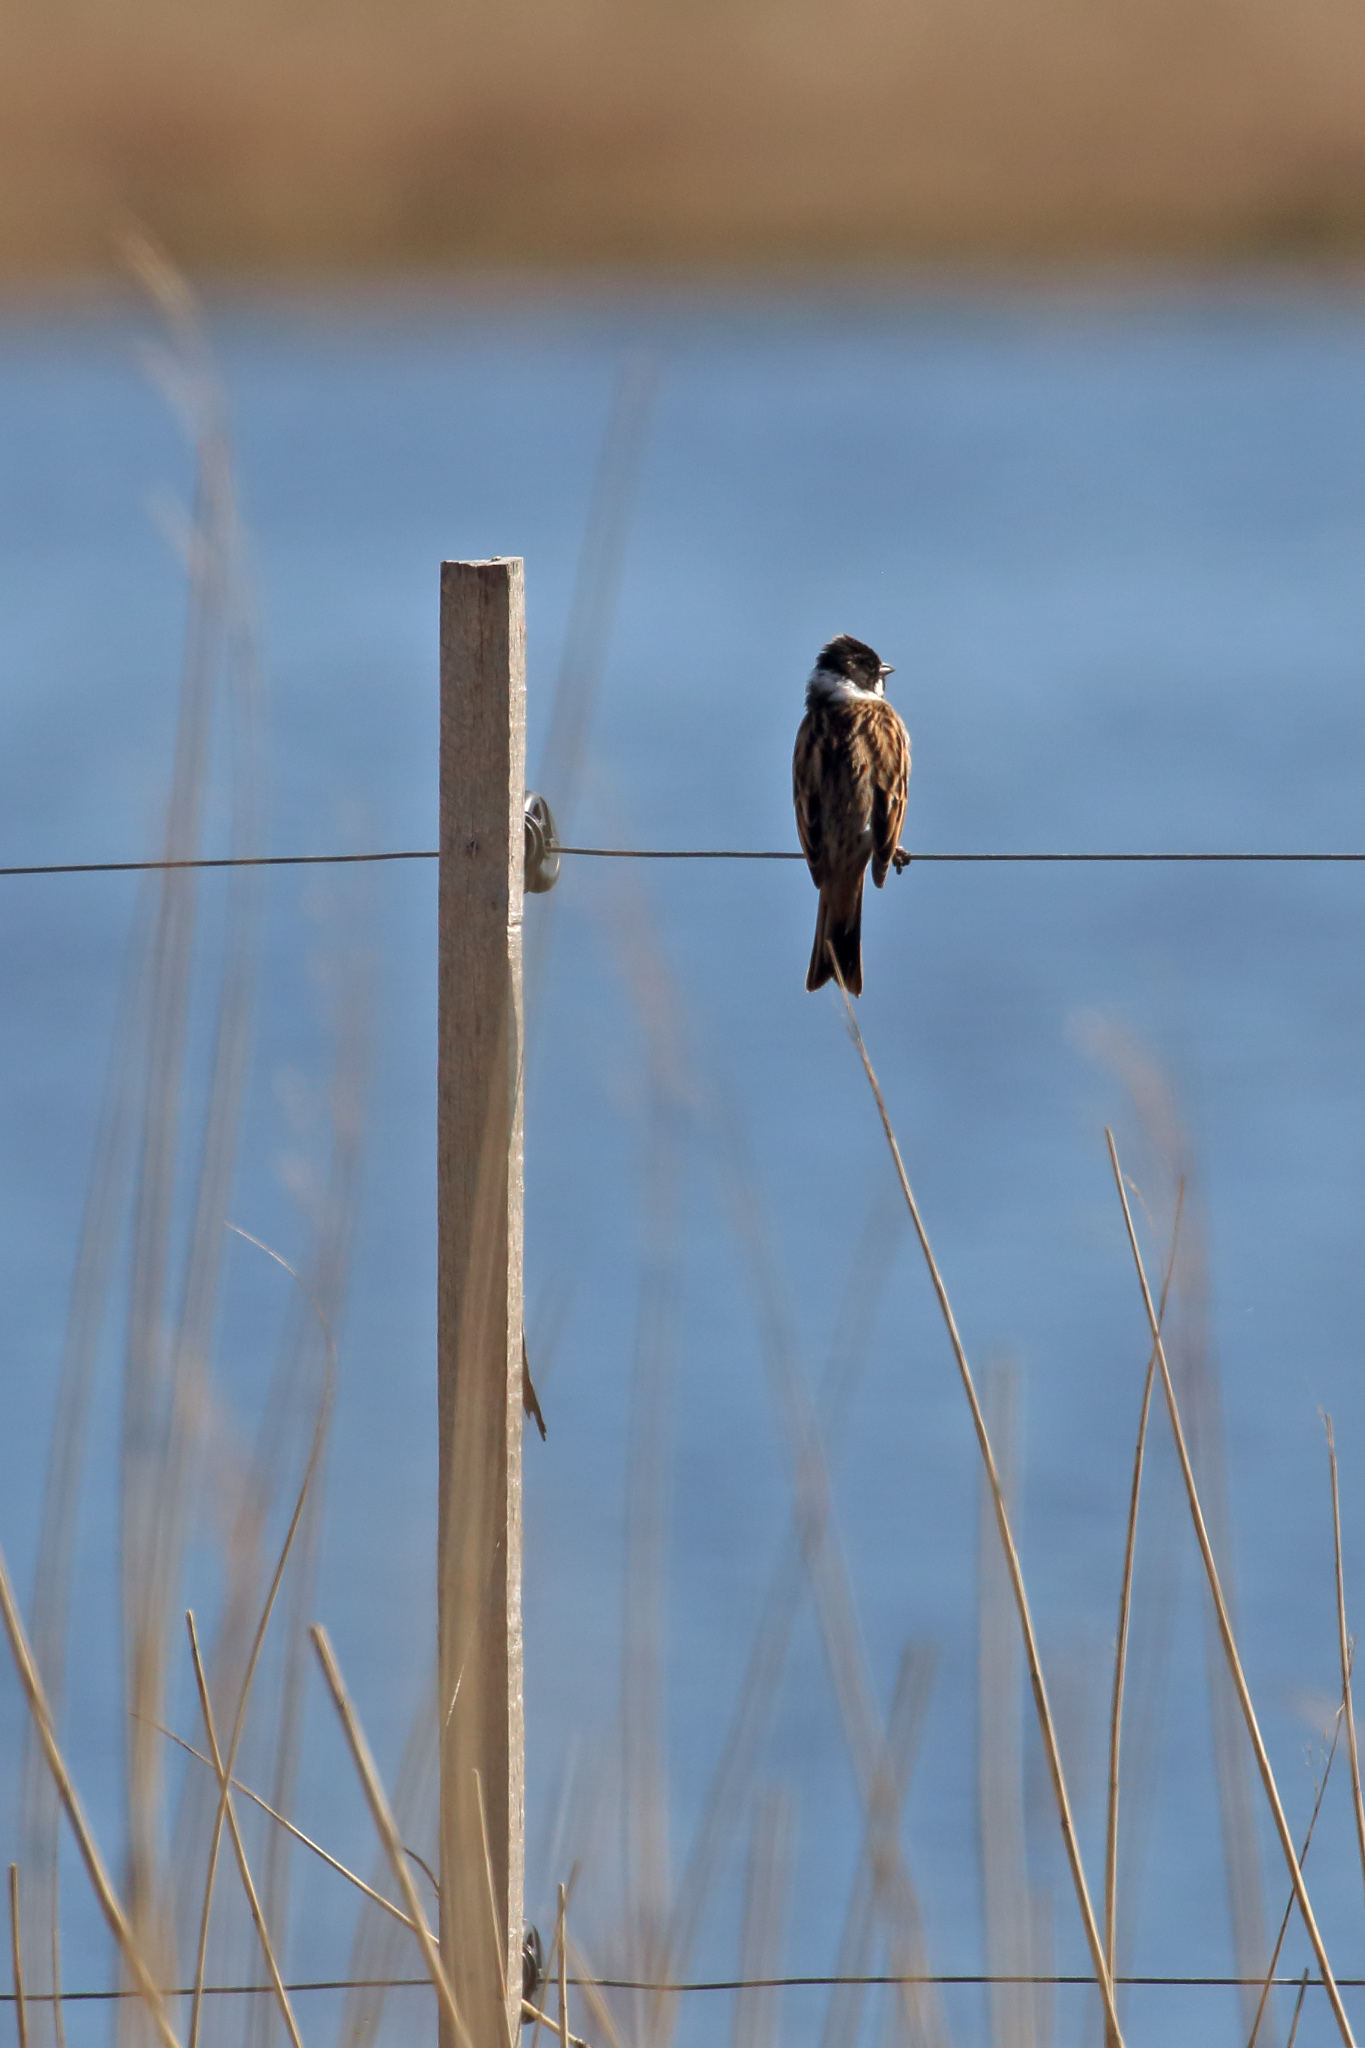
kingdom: Animalia
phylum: Chordata
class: Aves
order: Passeriformes
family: Emberizidae
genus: Emberiza
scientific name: Emberiza schoeniclus
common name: Reed bunting
